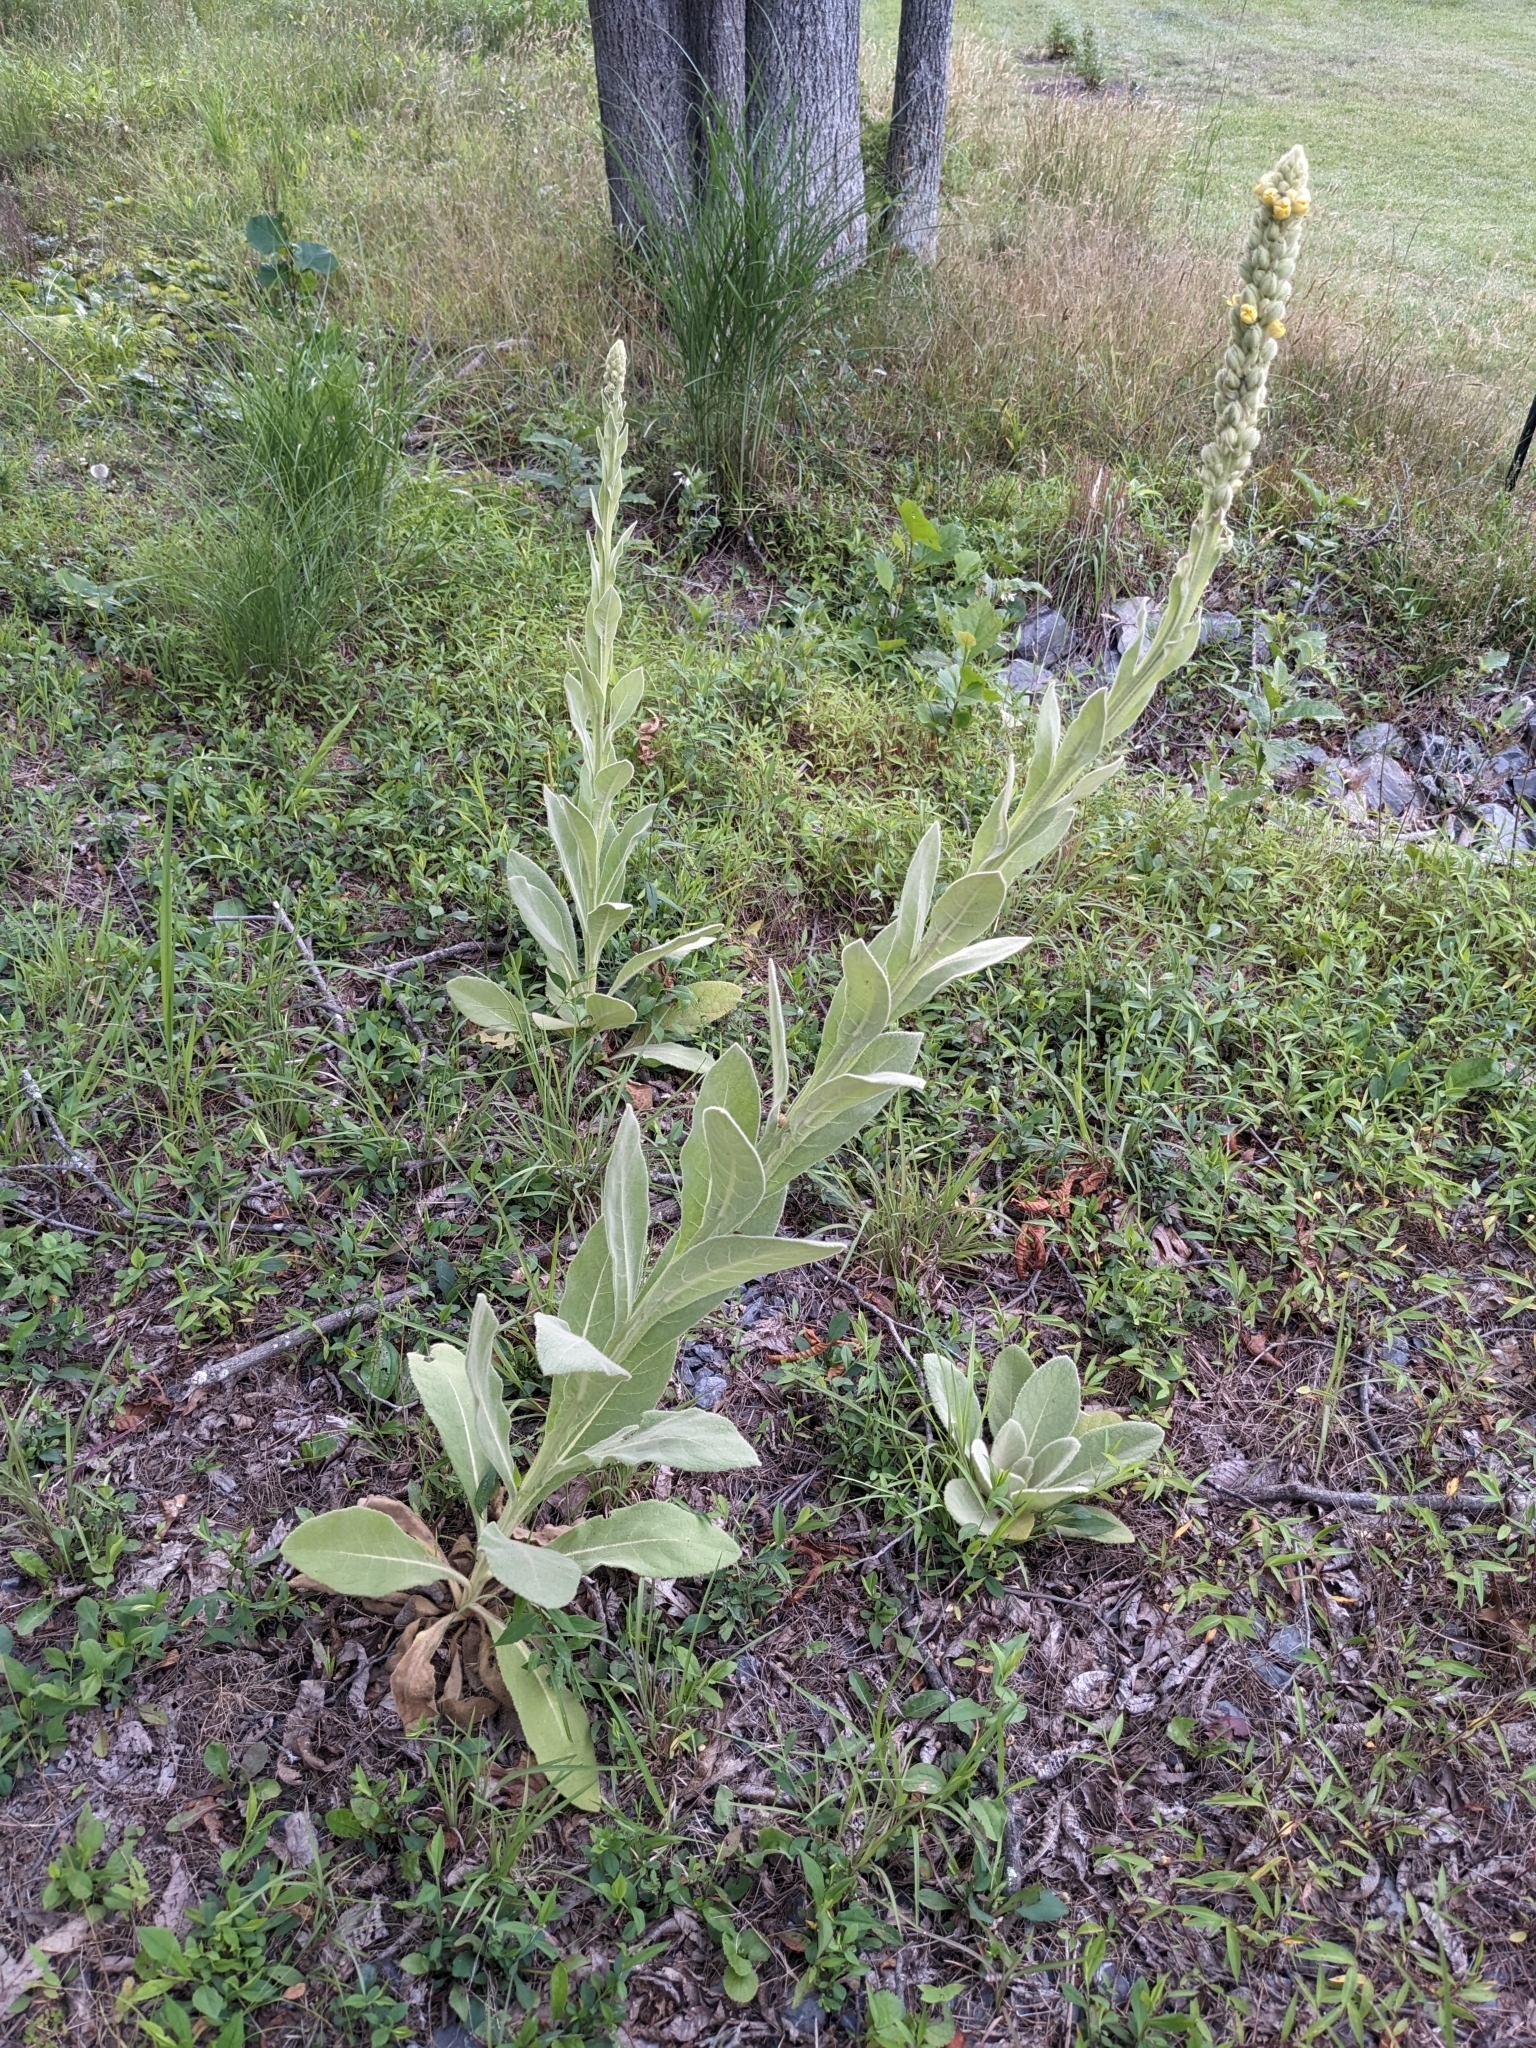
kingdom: Plantae
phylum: Tracheophyta
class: Magnoliopsida
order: Lamiales
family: Scrophulariaceae
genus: Verbascum
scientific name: Verbascum thapsus
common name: Common mullein
